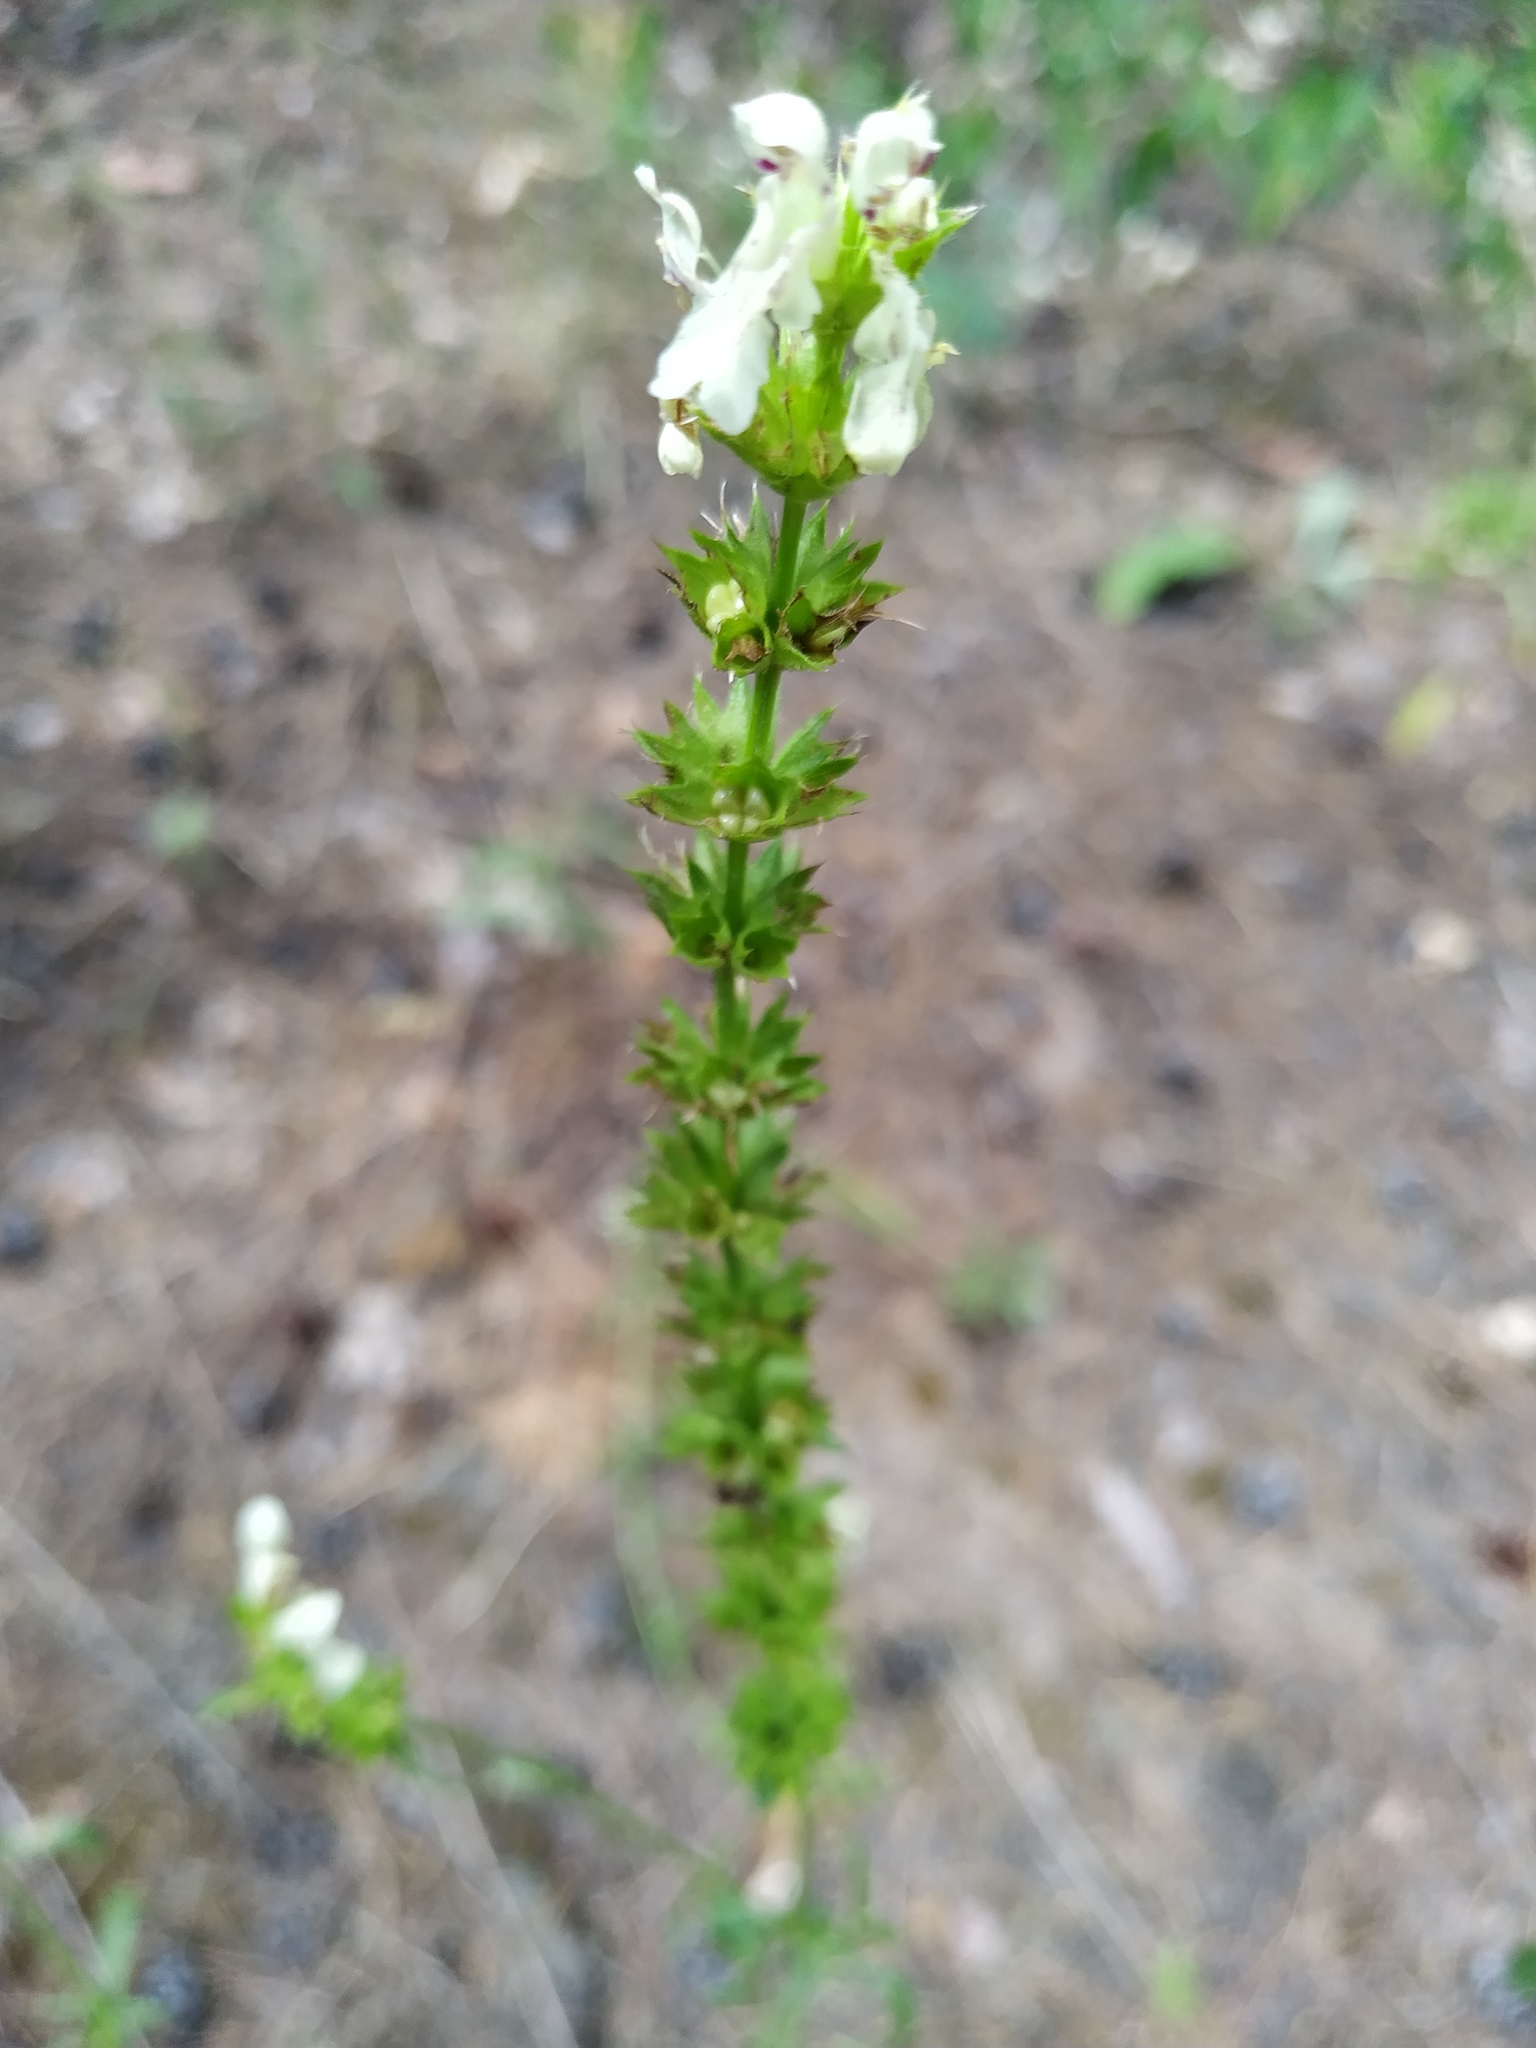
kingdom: Plantae
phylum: Tracheophyta
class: Magnoliopsida
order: Lamiales
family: Lamiaceae
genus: Stachys
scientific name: Stachys recta
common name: Perennial yellow-woundwort
